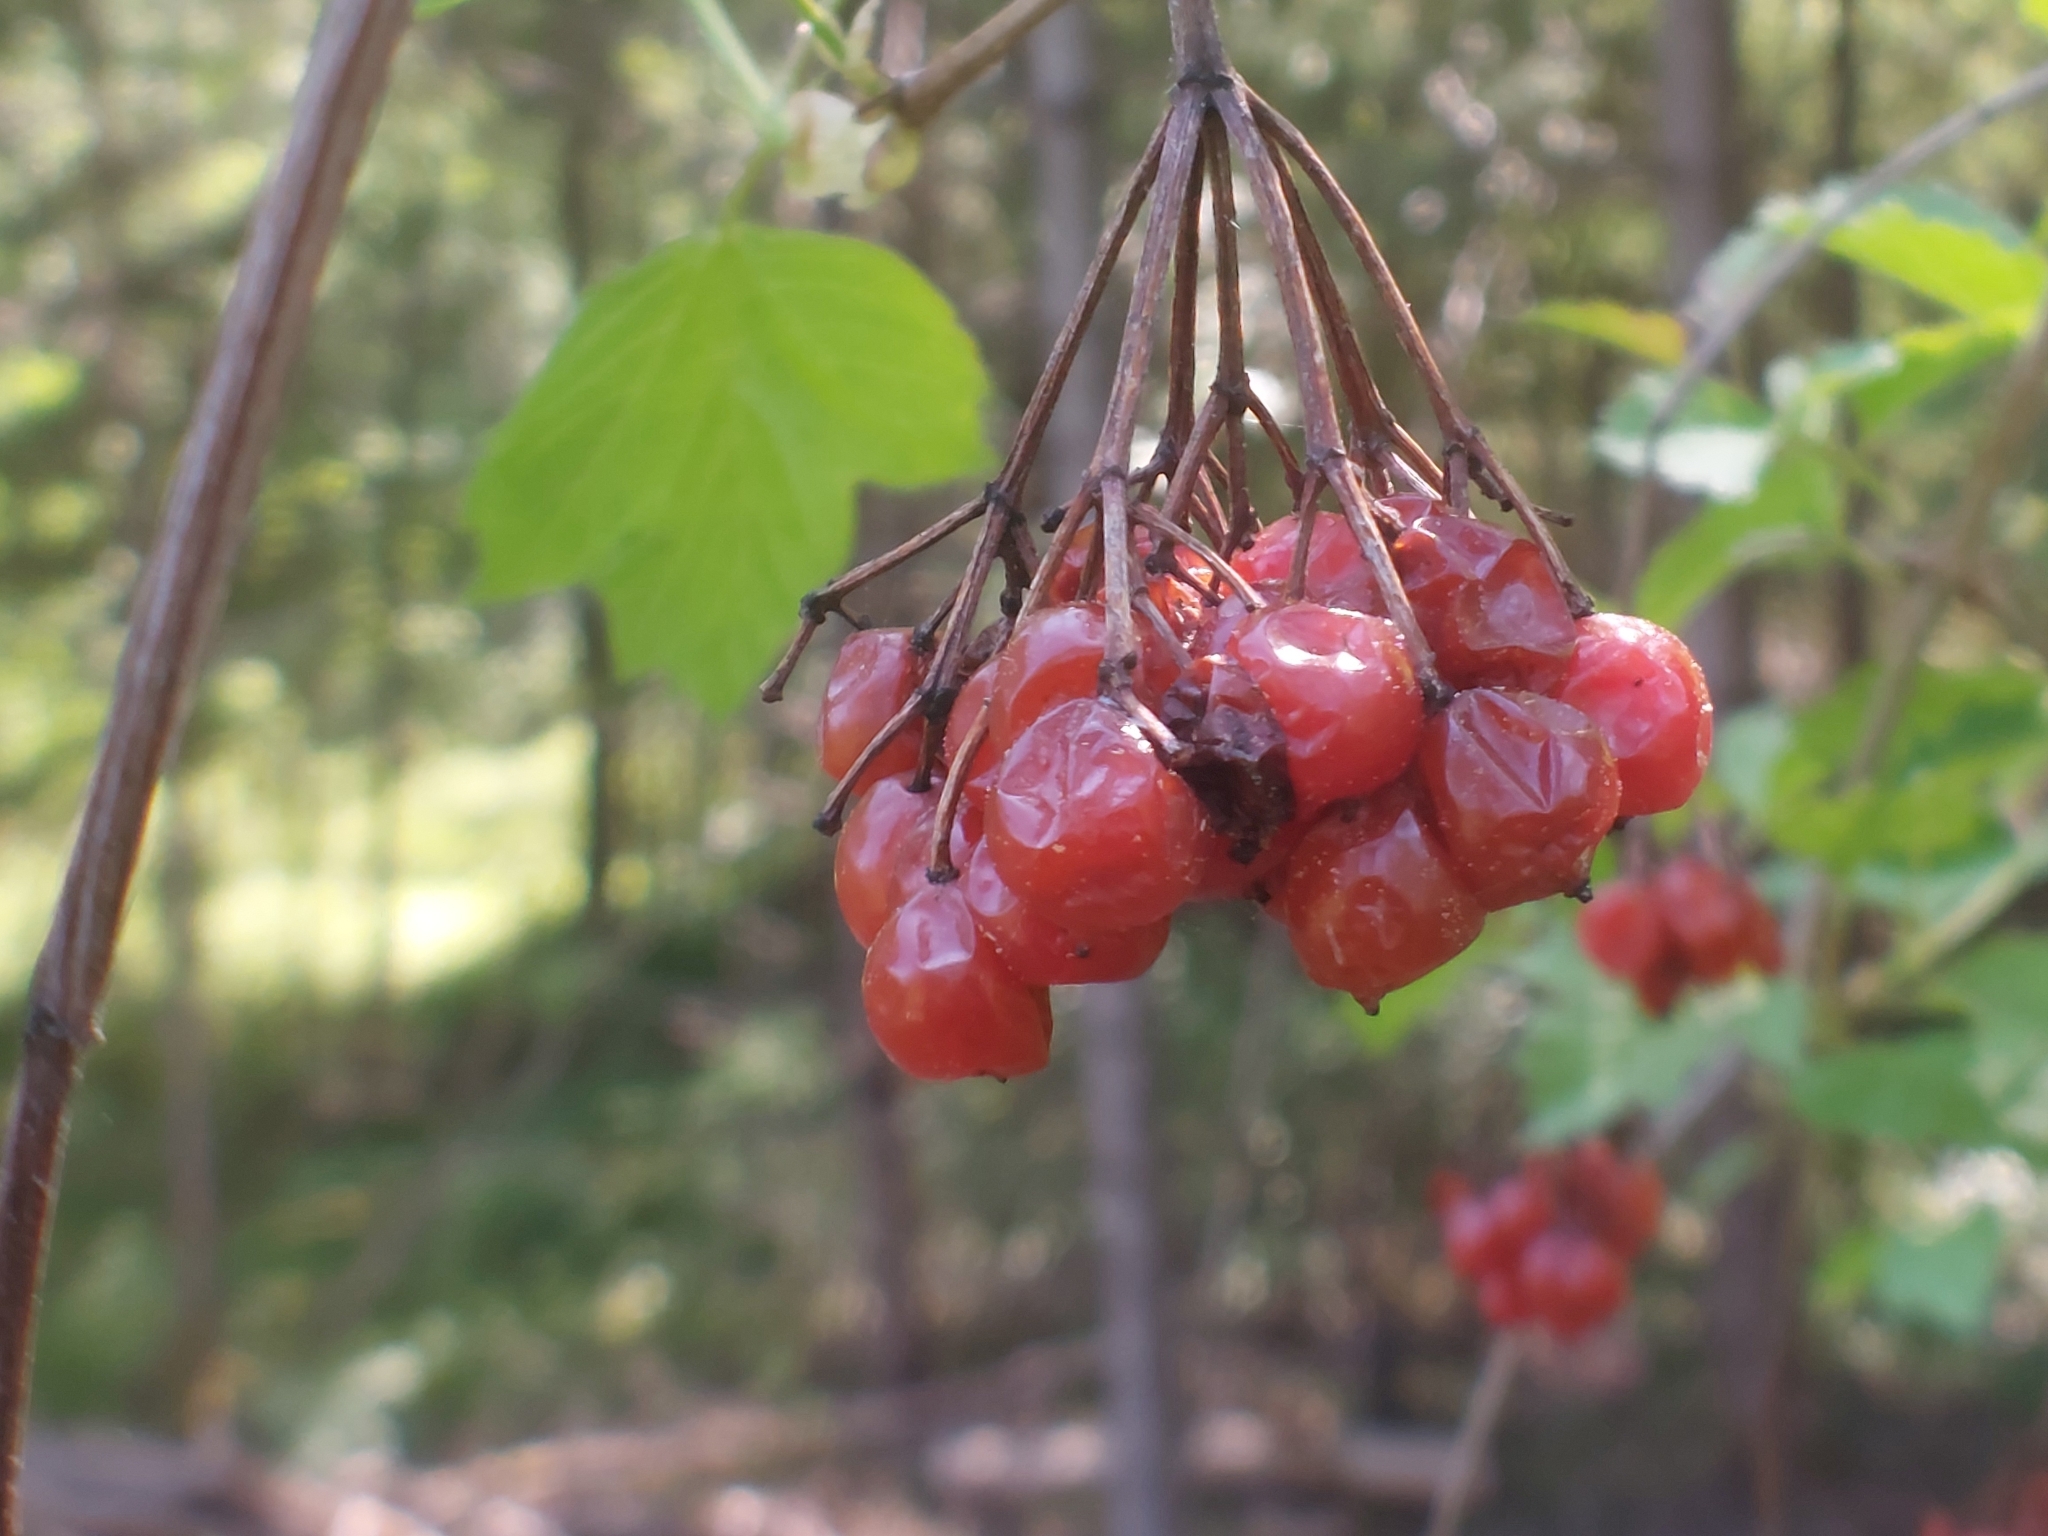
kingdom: Plantae
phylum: Tracheophyta
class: Magnoliopsida
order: Dipsacales
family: Viburnaceae
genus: Viburnum
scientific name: Viburnum opulus
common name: Guelder-rose
